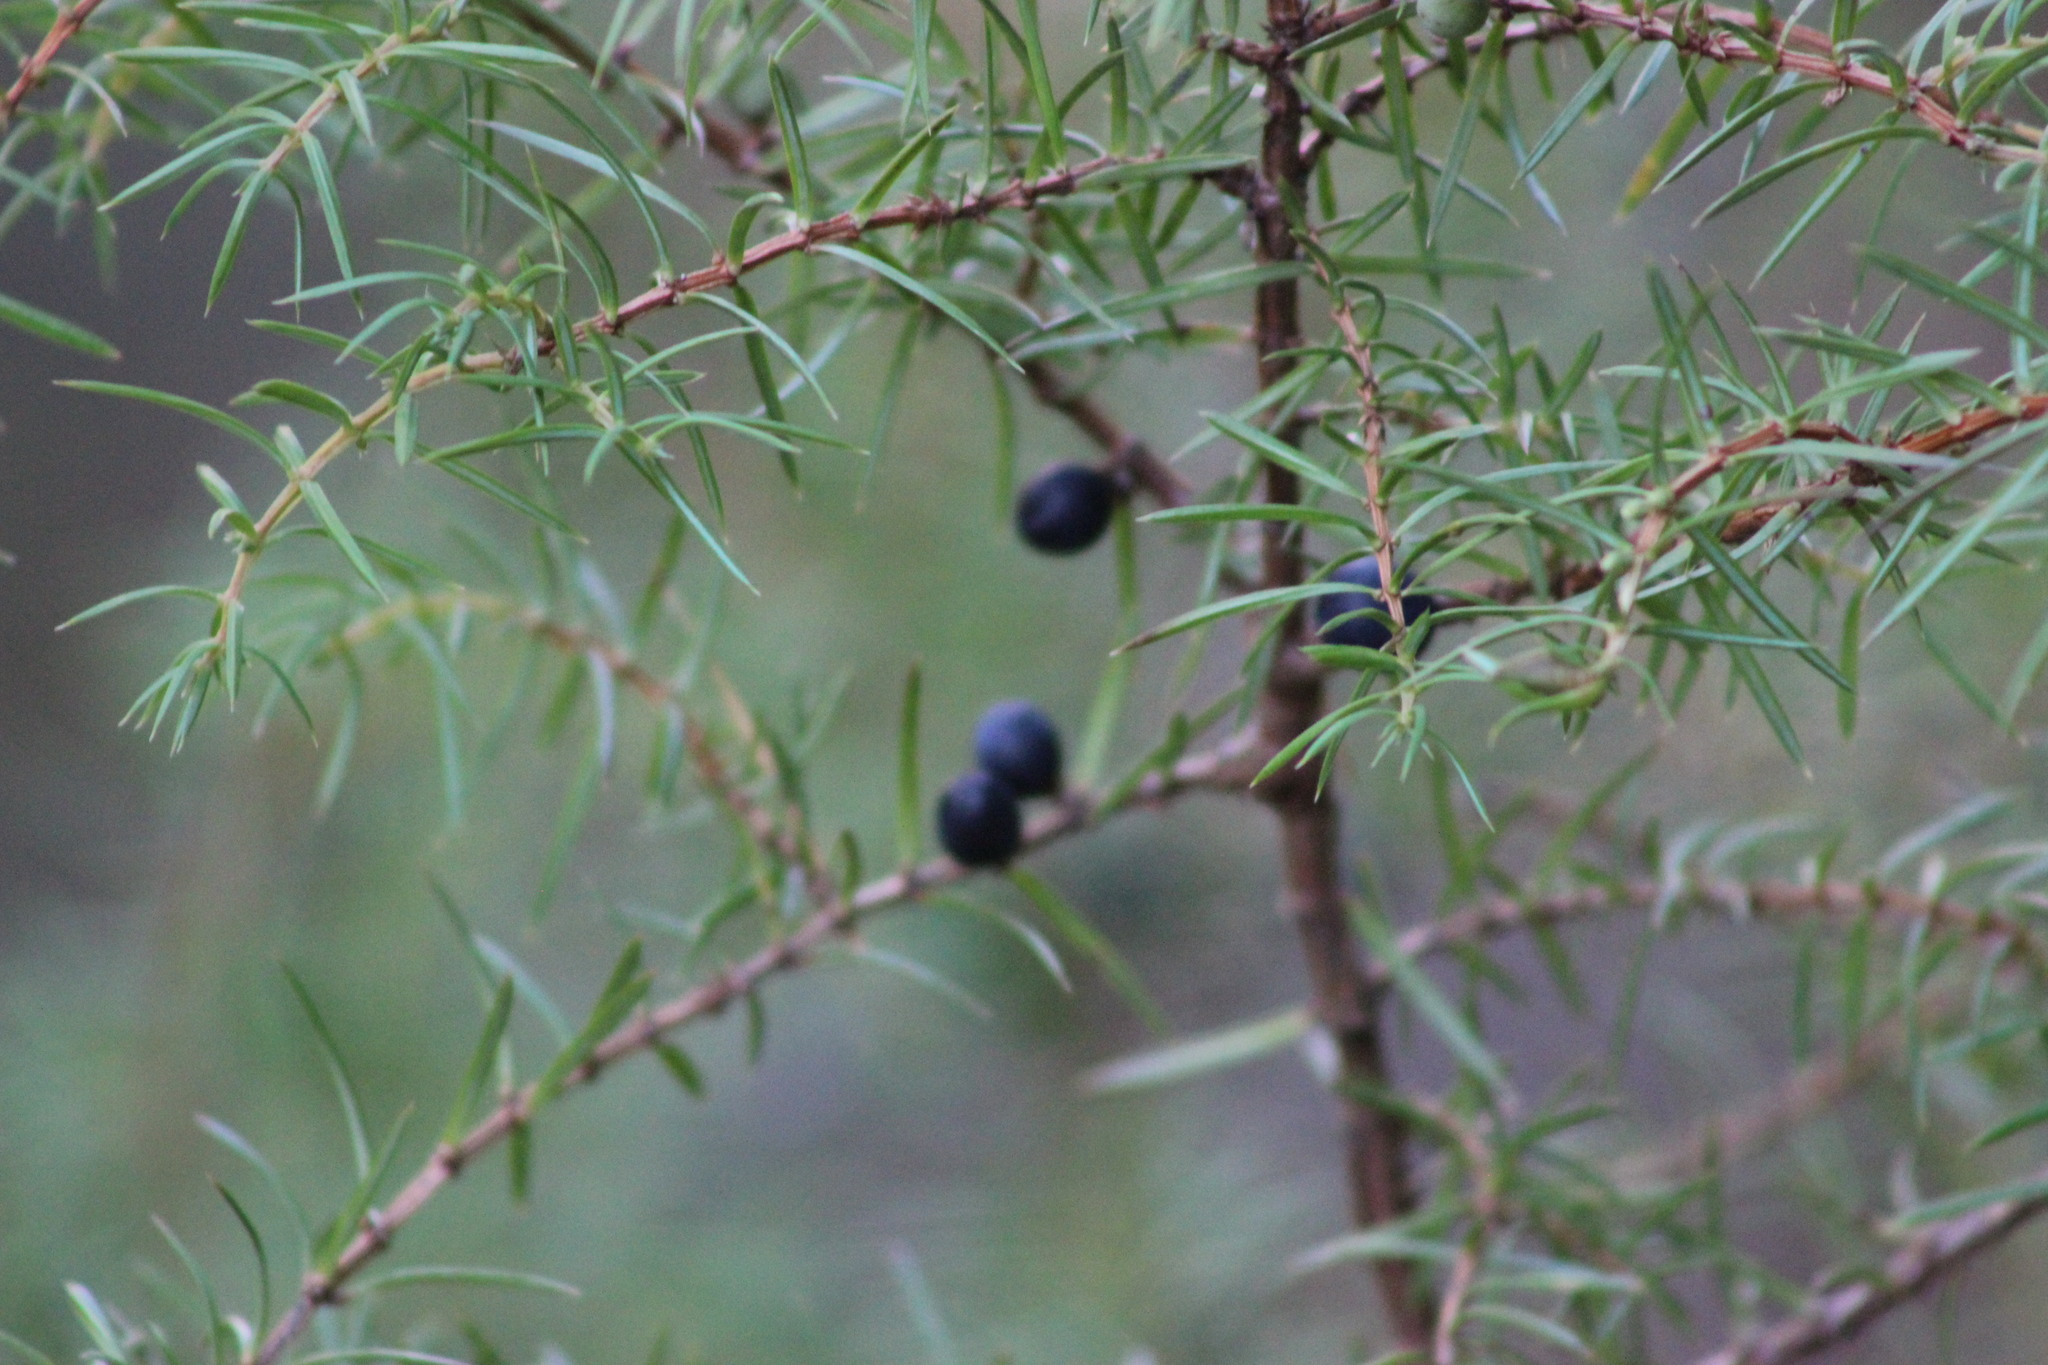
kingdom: Plantae
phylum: Tracheophyta
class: Pinopsida
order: Pinales
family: Cupressaceae
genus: Juniperus
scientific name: Juniperus communis
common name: Common juniper
